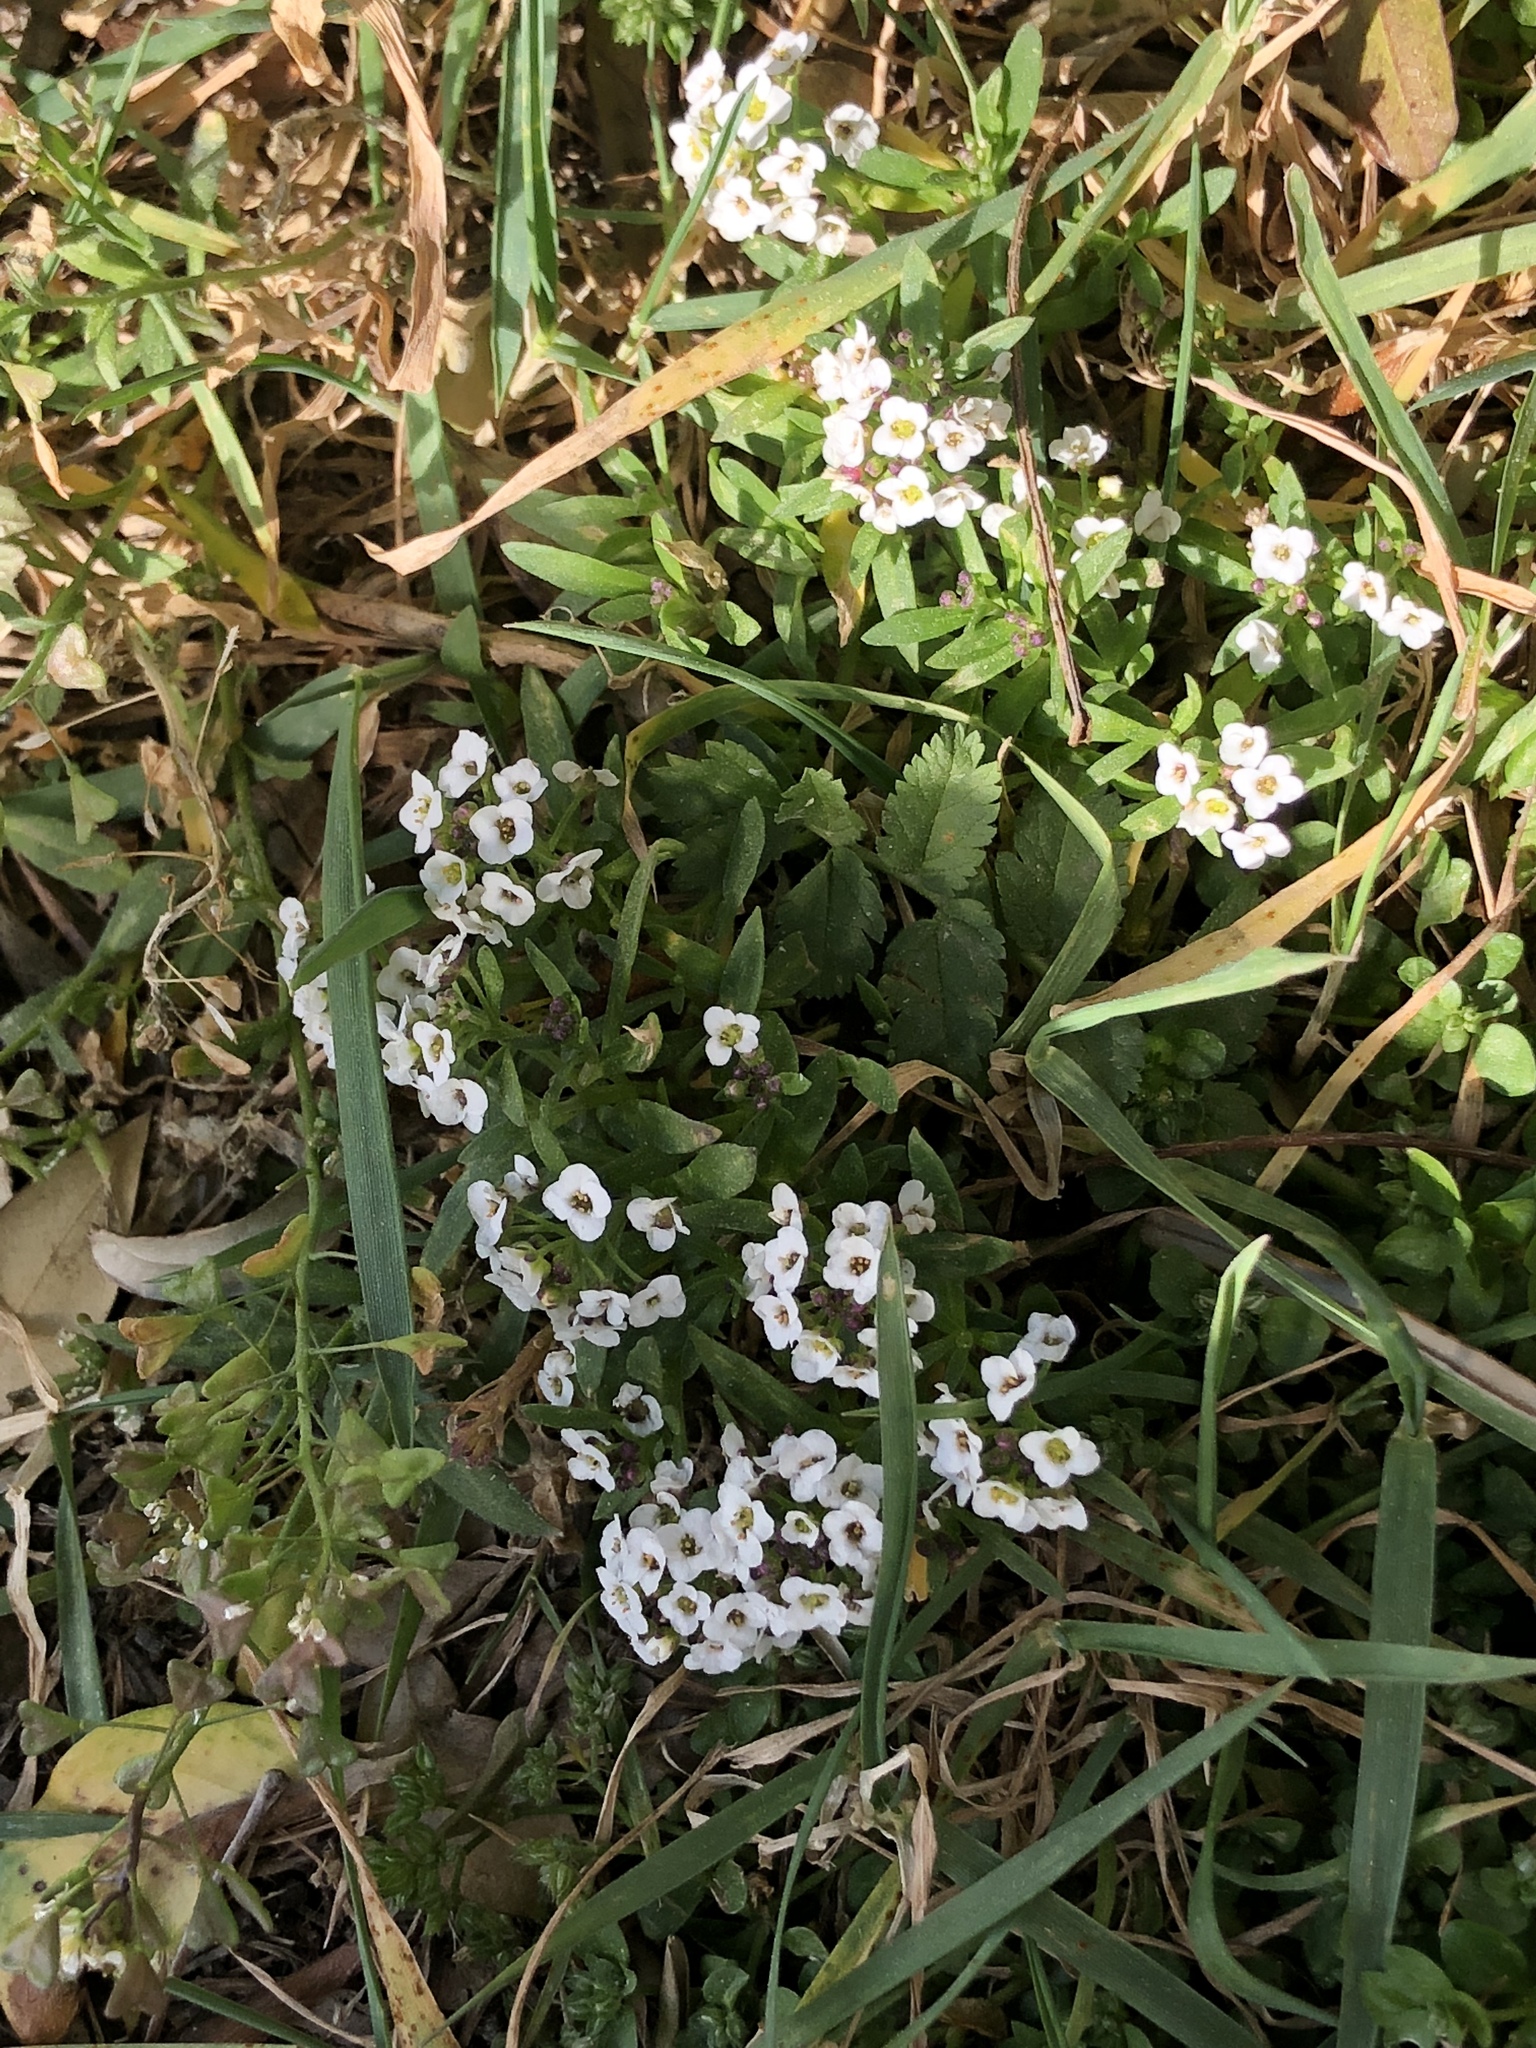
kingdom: Plantae
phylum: Tracheophyta
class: Magnoliopsida
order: Brassicales
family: Brassicaceae
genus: Lobularia
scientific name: Lobularia maritima
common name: Sweet alison
